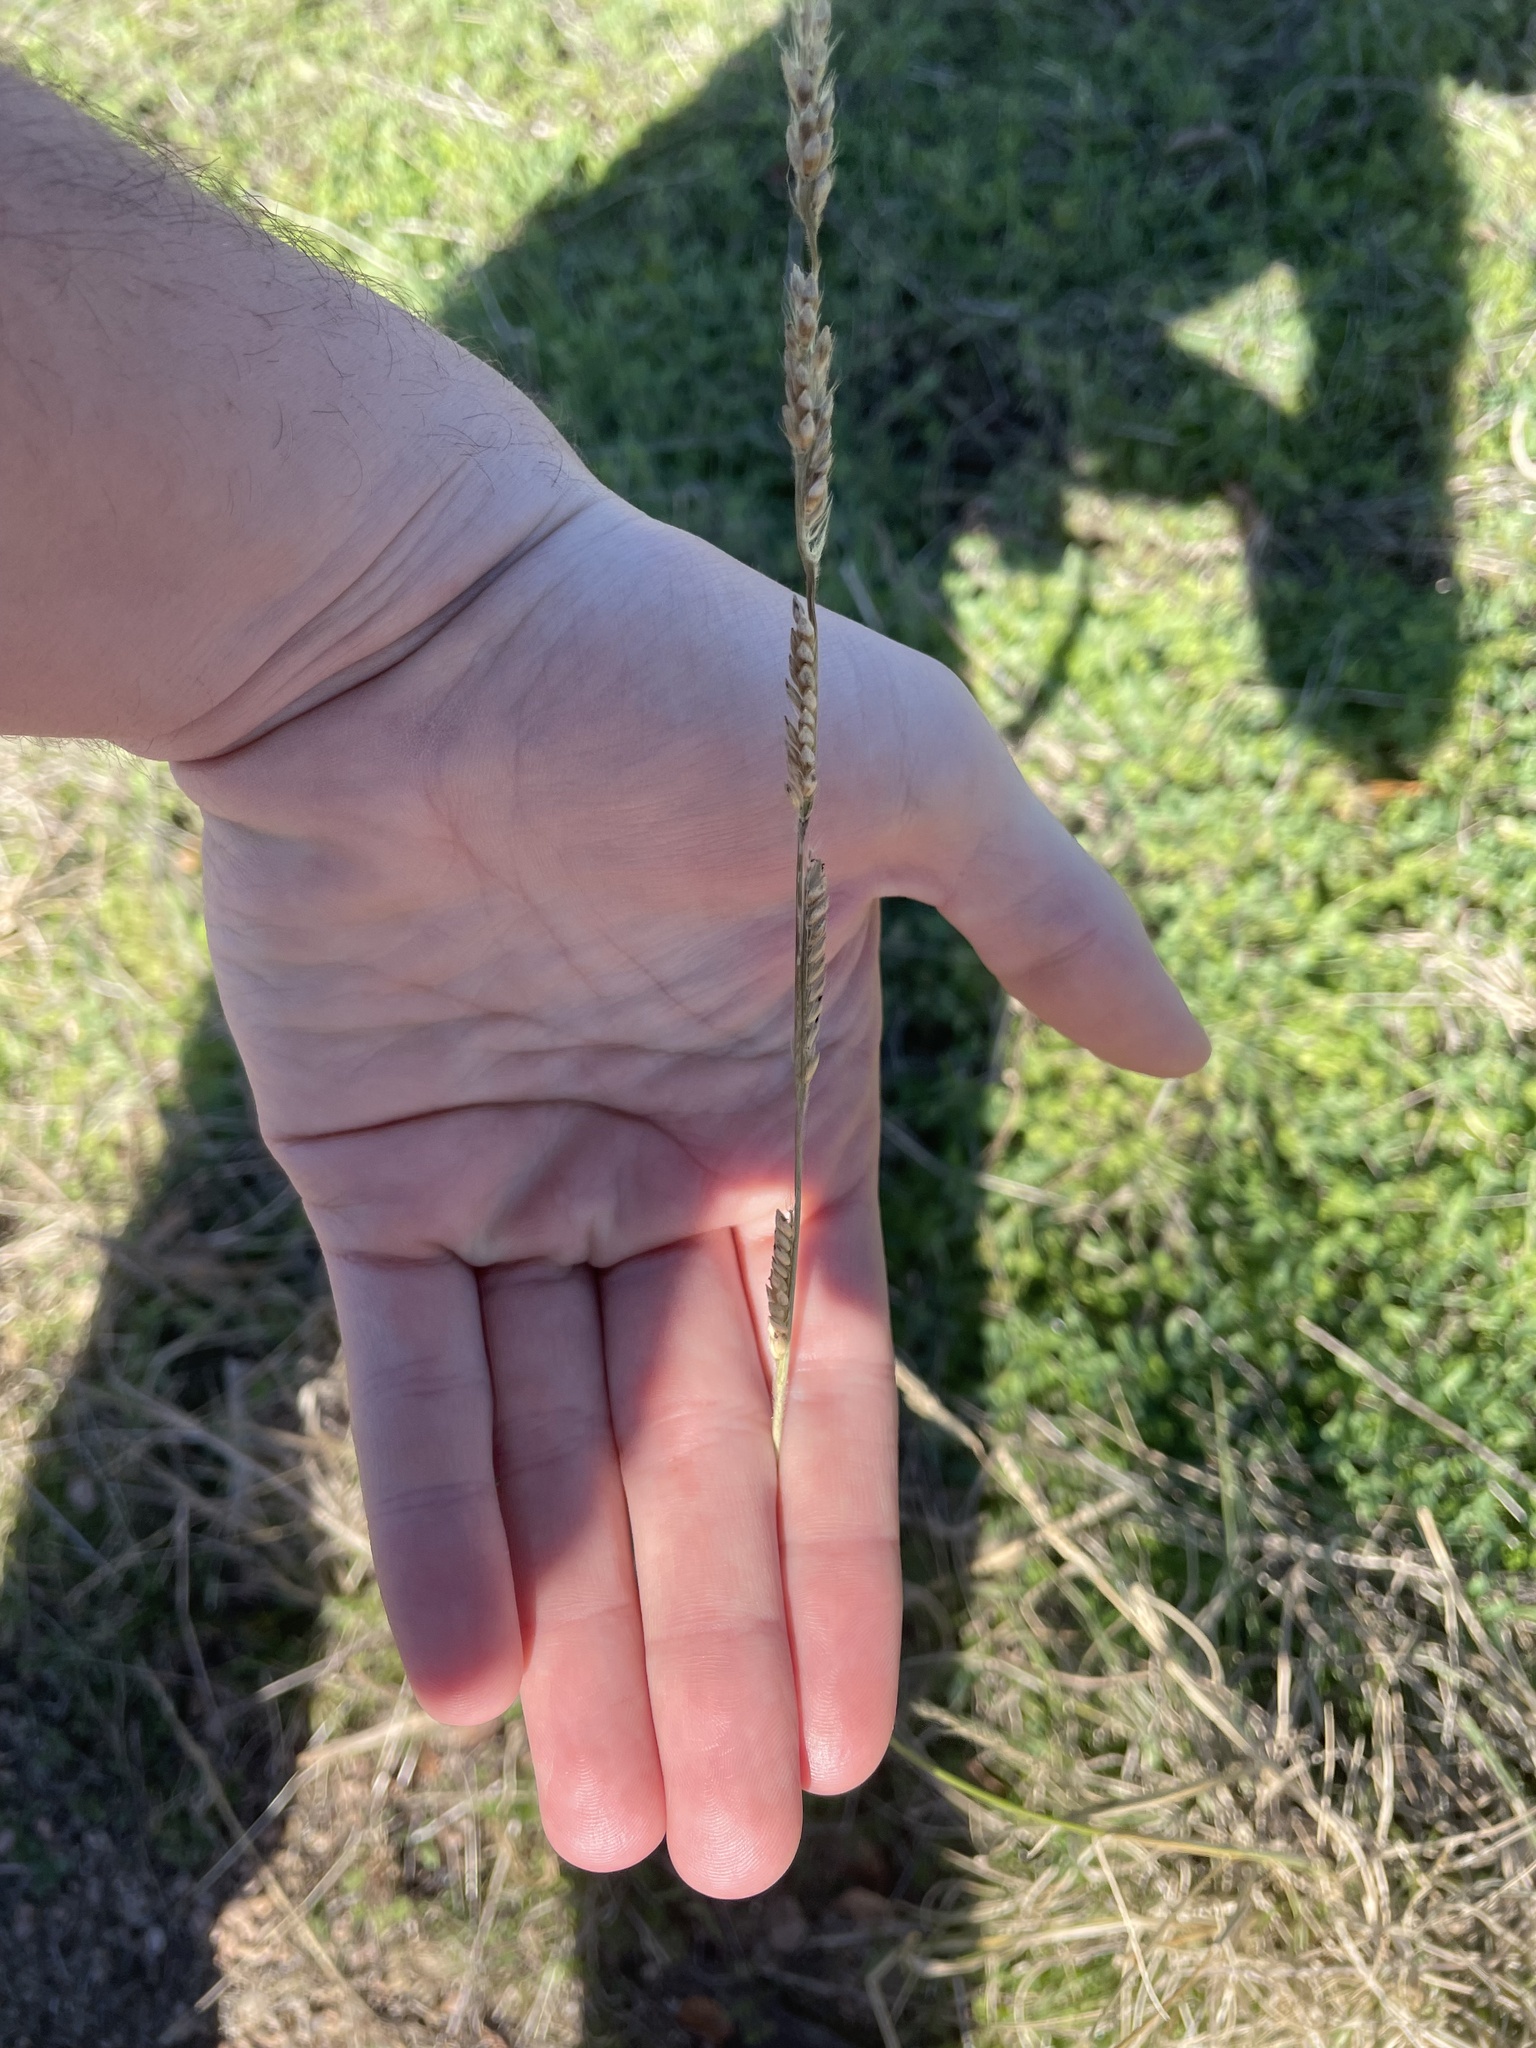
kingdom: Plantae
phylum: Tracheophyta
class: Liliopsida
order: Poales
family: Poaceae
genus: Eriochloa
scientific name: Eriochloa sericea
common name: Texas cup grass
